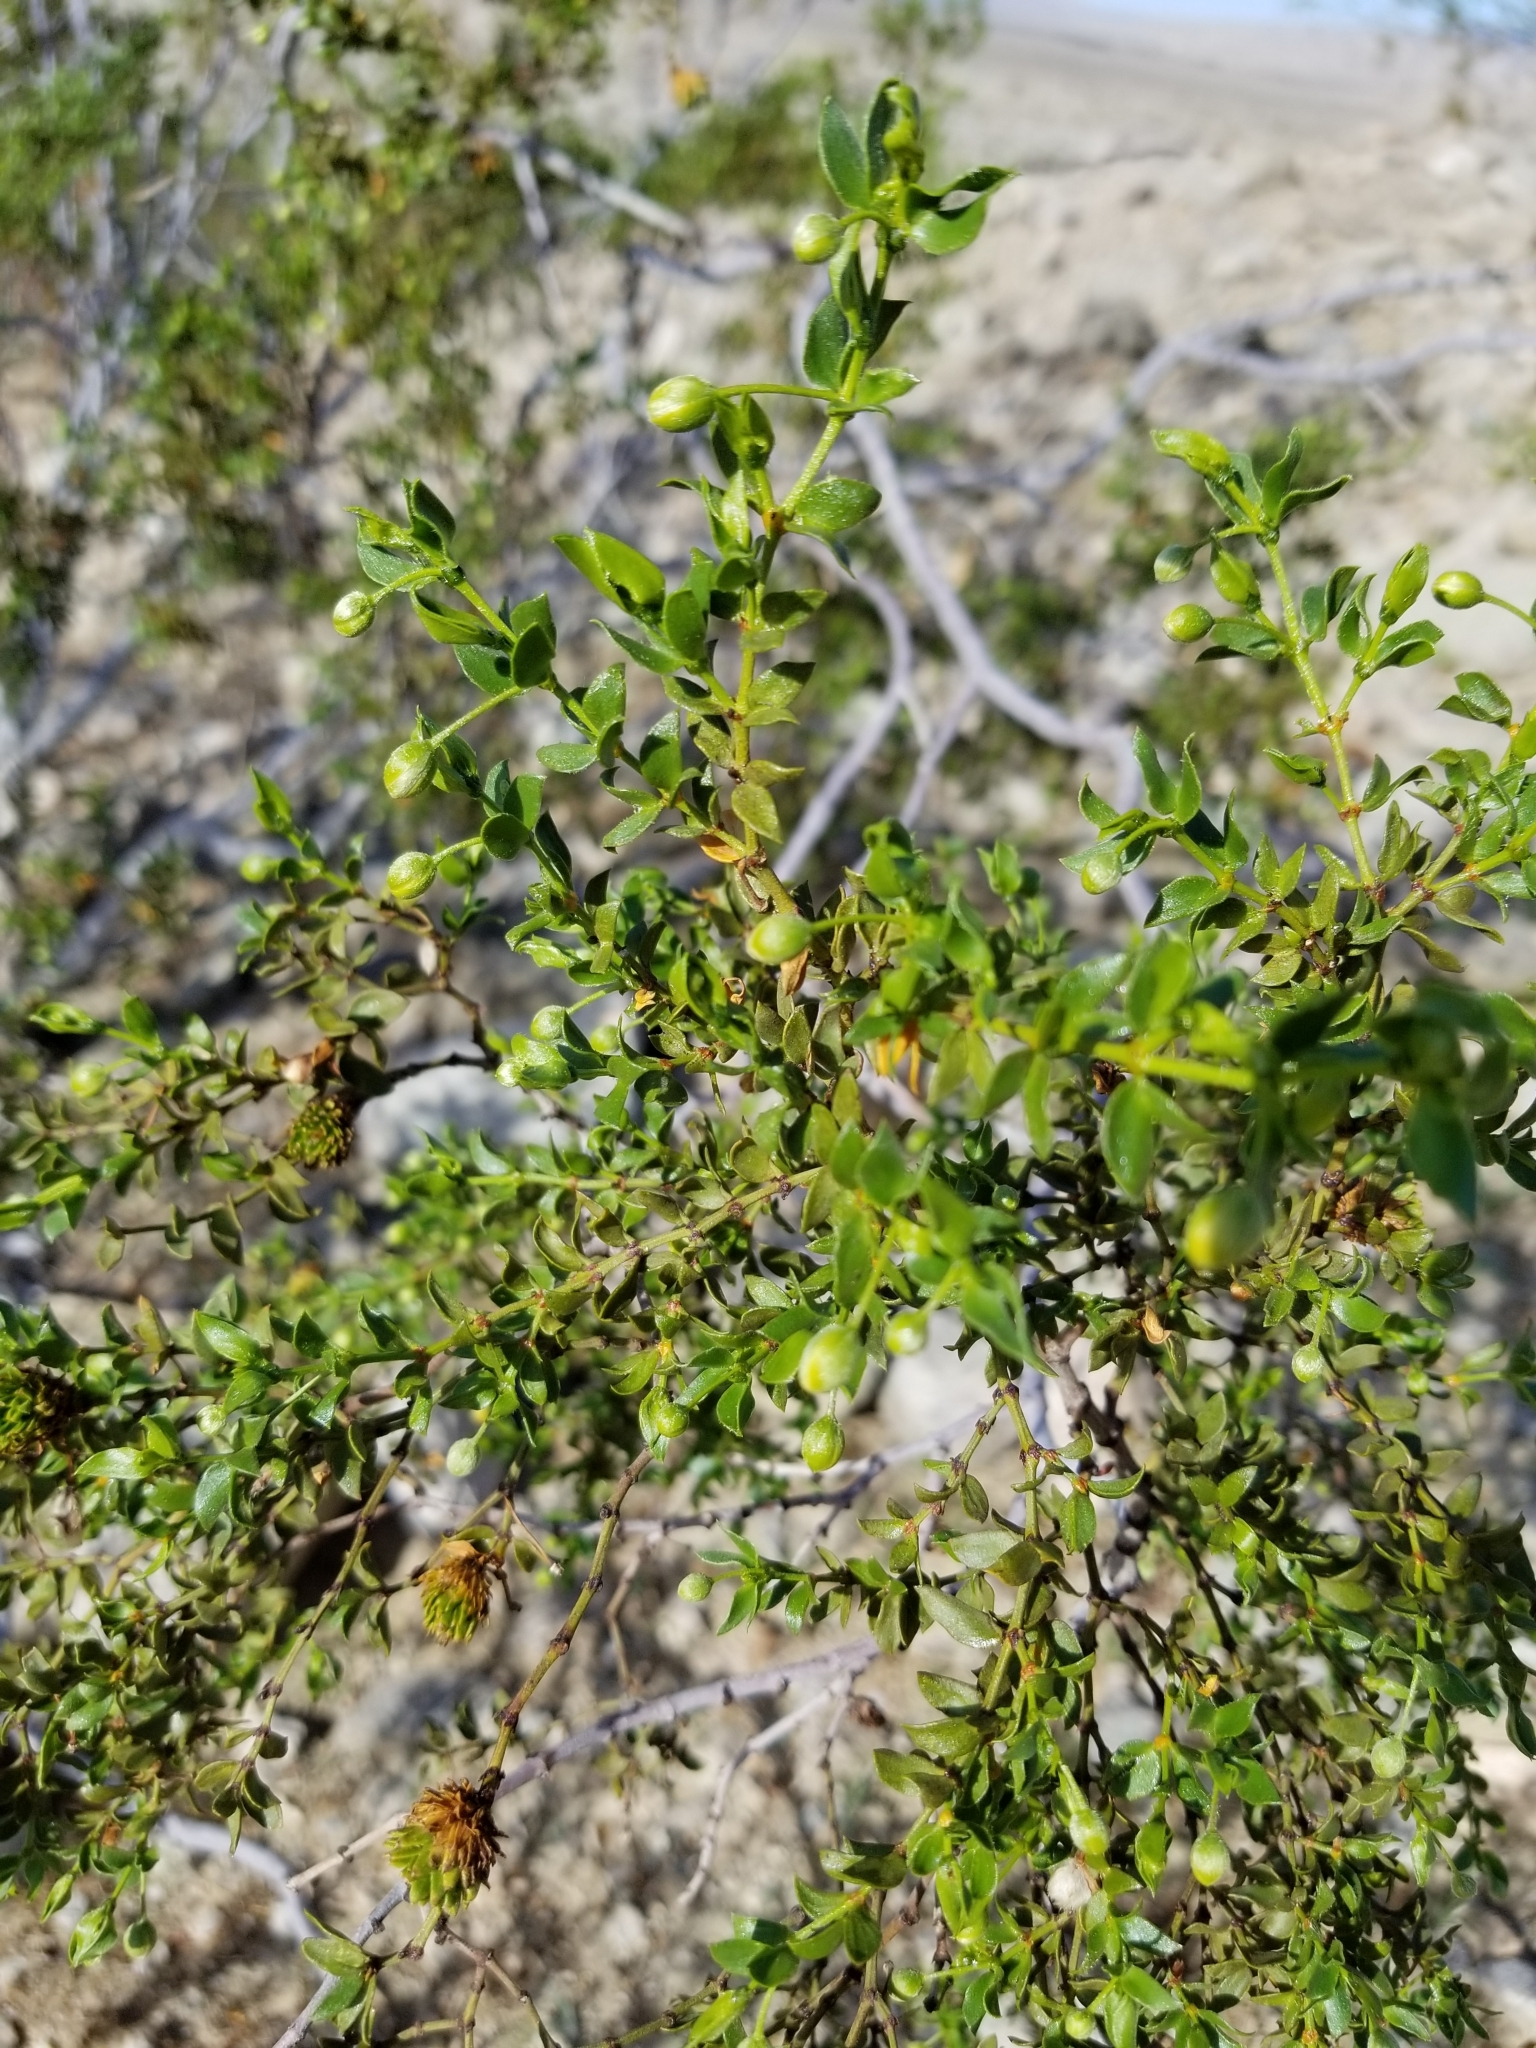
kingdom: Plantae
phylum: Tracheophyta
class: Magnoliopsida
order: Zygophyllales
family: Zygophyllaceae
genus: Larrea
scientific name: Larrea tridentata
